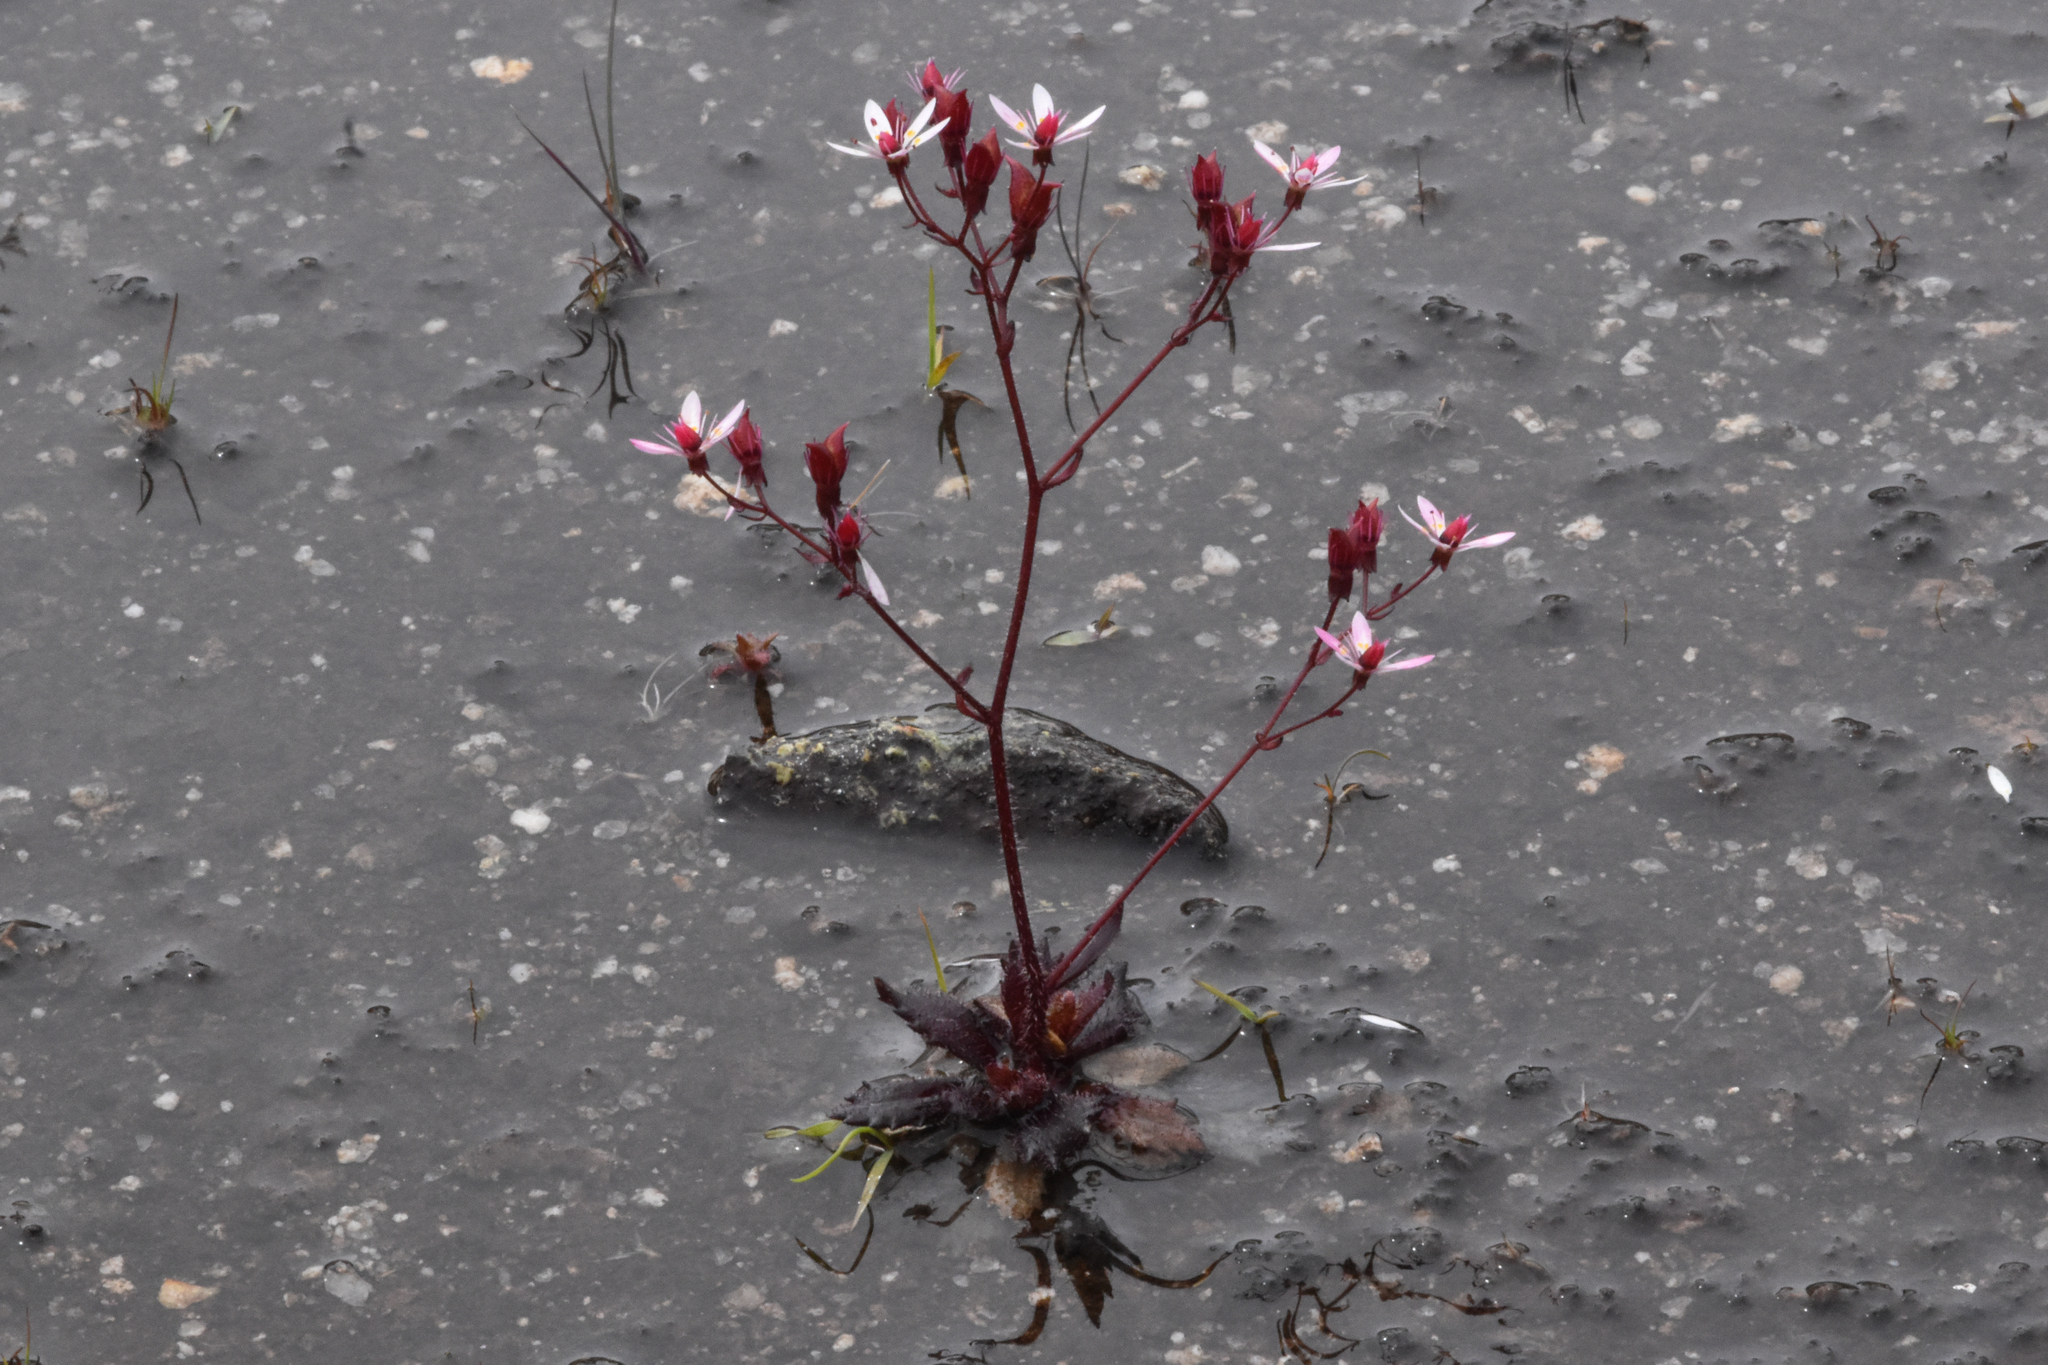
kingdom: Plantae
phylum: Tracheophyta
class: Magnoliopsida
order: Saxifragales
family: Saxifragaceae
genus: Micranthes
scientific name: Micranthes ferruginea
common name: Rusty saxifrage
